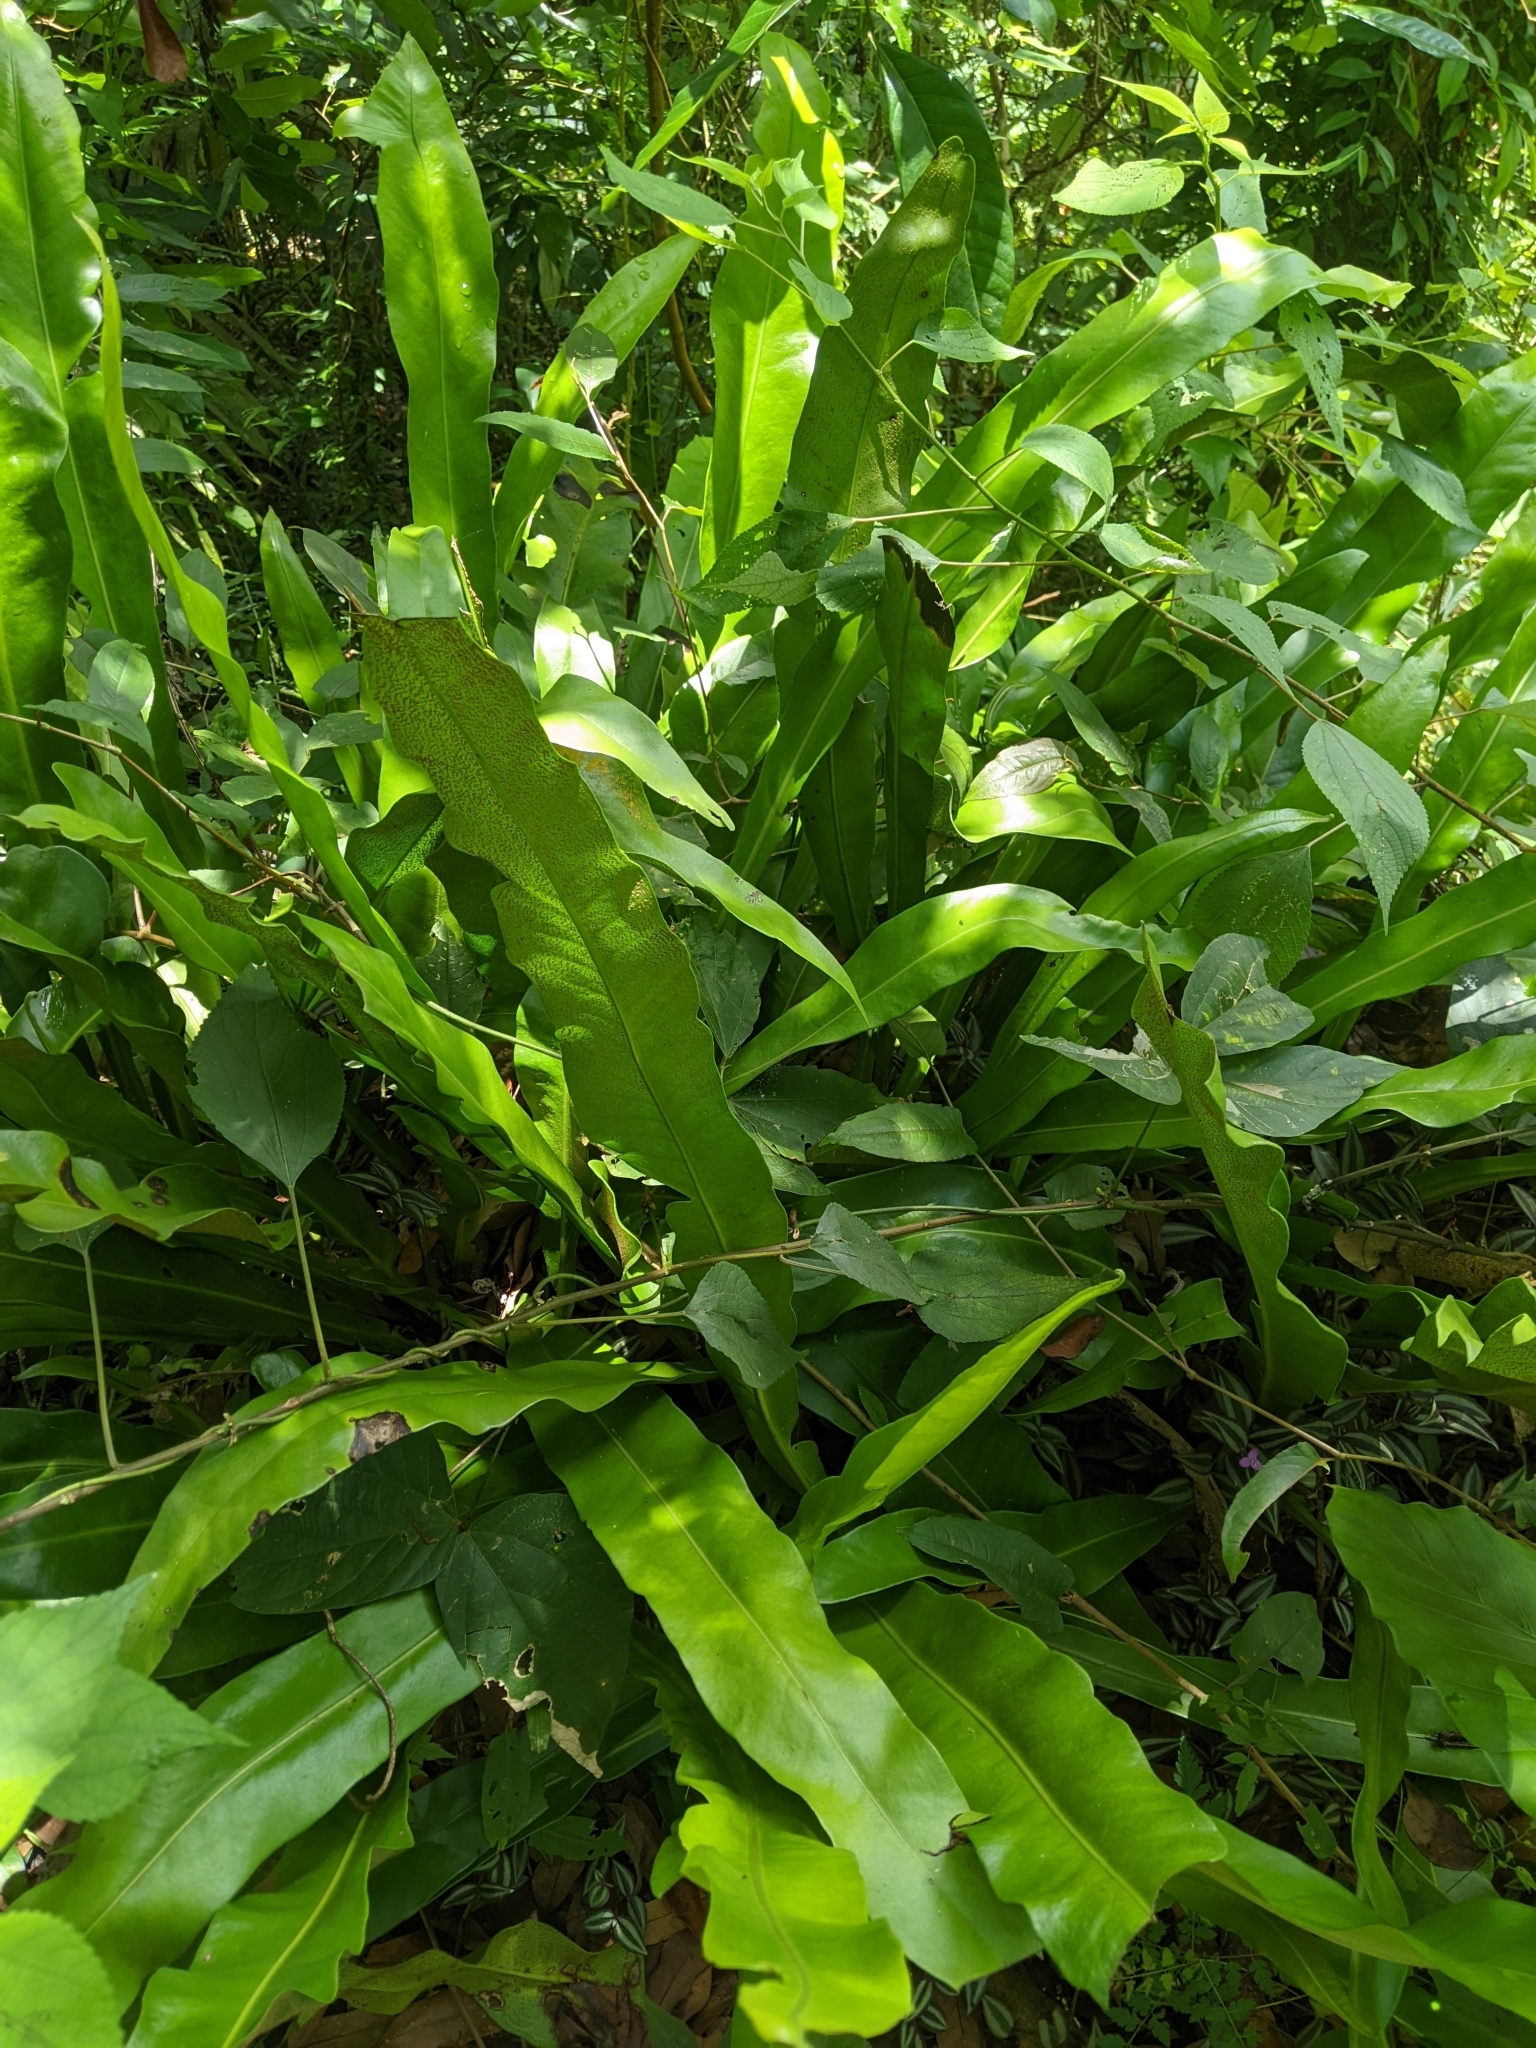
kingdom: Plantae
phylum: Tracheophyta
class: Polypodiopsida
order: Polypodiales
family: Polypodiaceae
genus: Microsorum
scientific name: Microsorum punctatum
